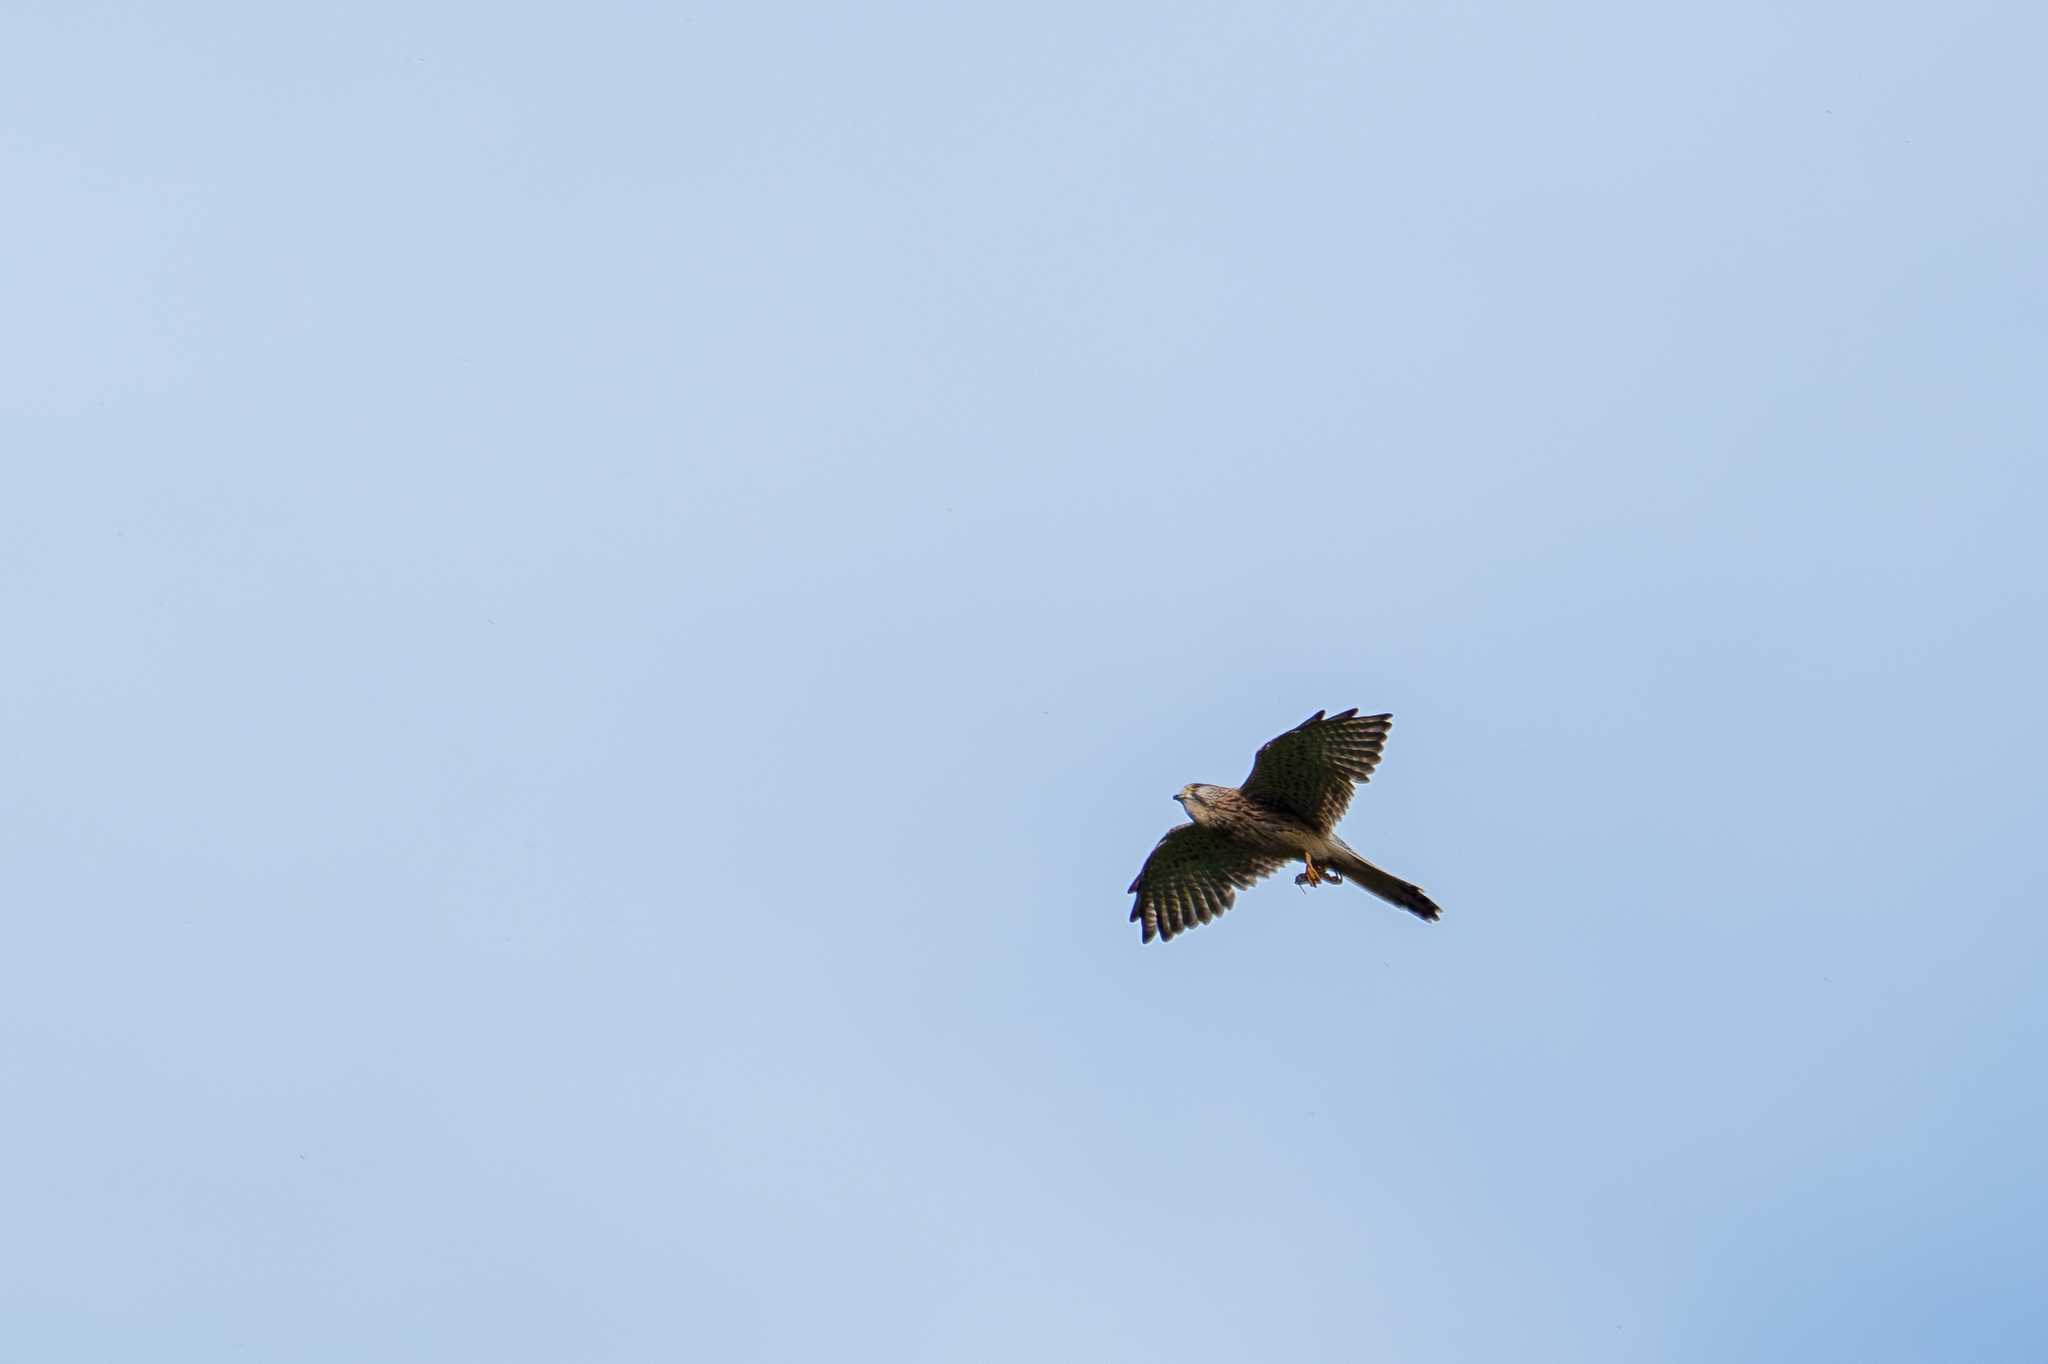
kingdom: Animalia
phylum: Chordata
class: Aves
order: Falconiformes
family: Falconidae
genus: Falco
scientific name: Falco tinnunculus
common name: Common kestrel
